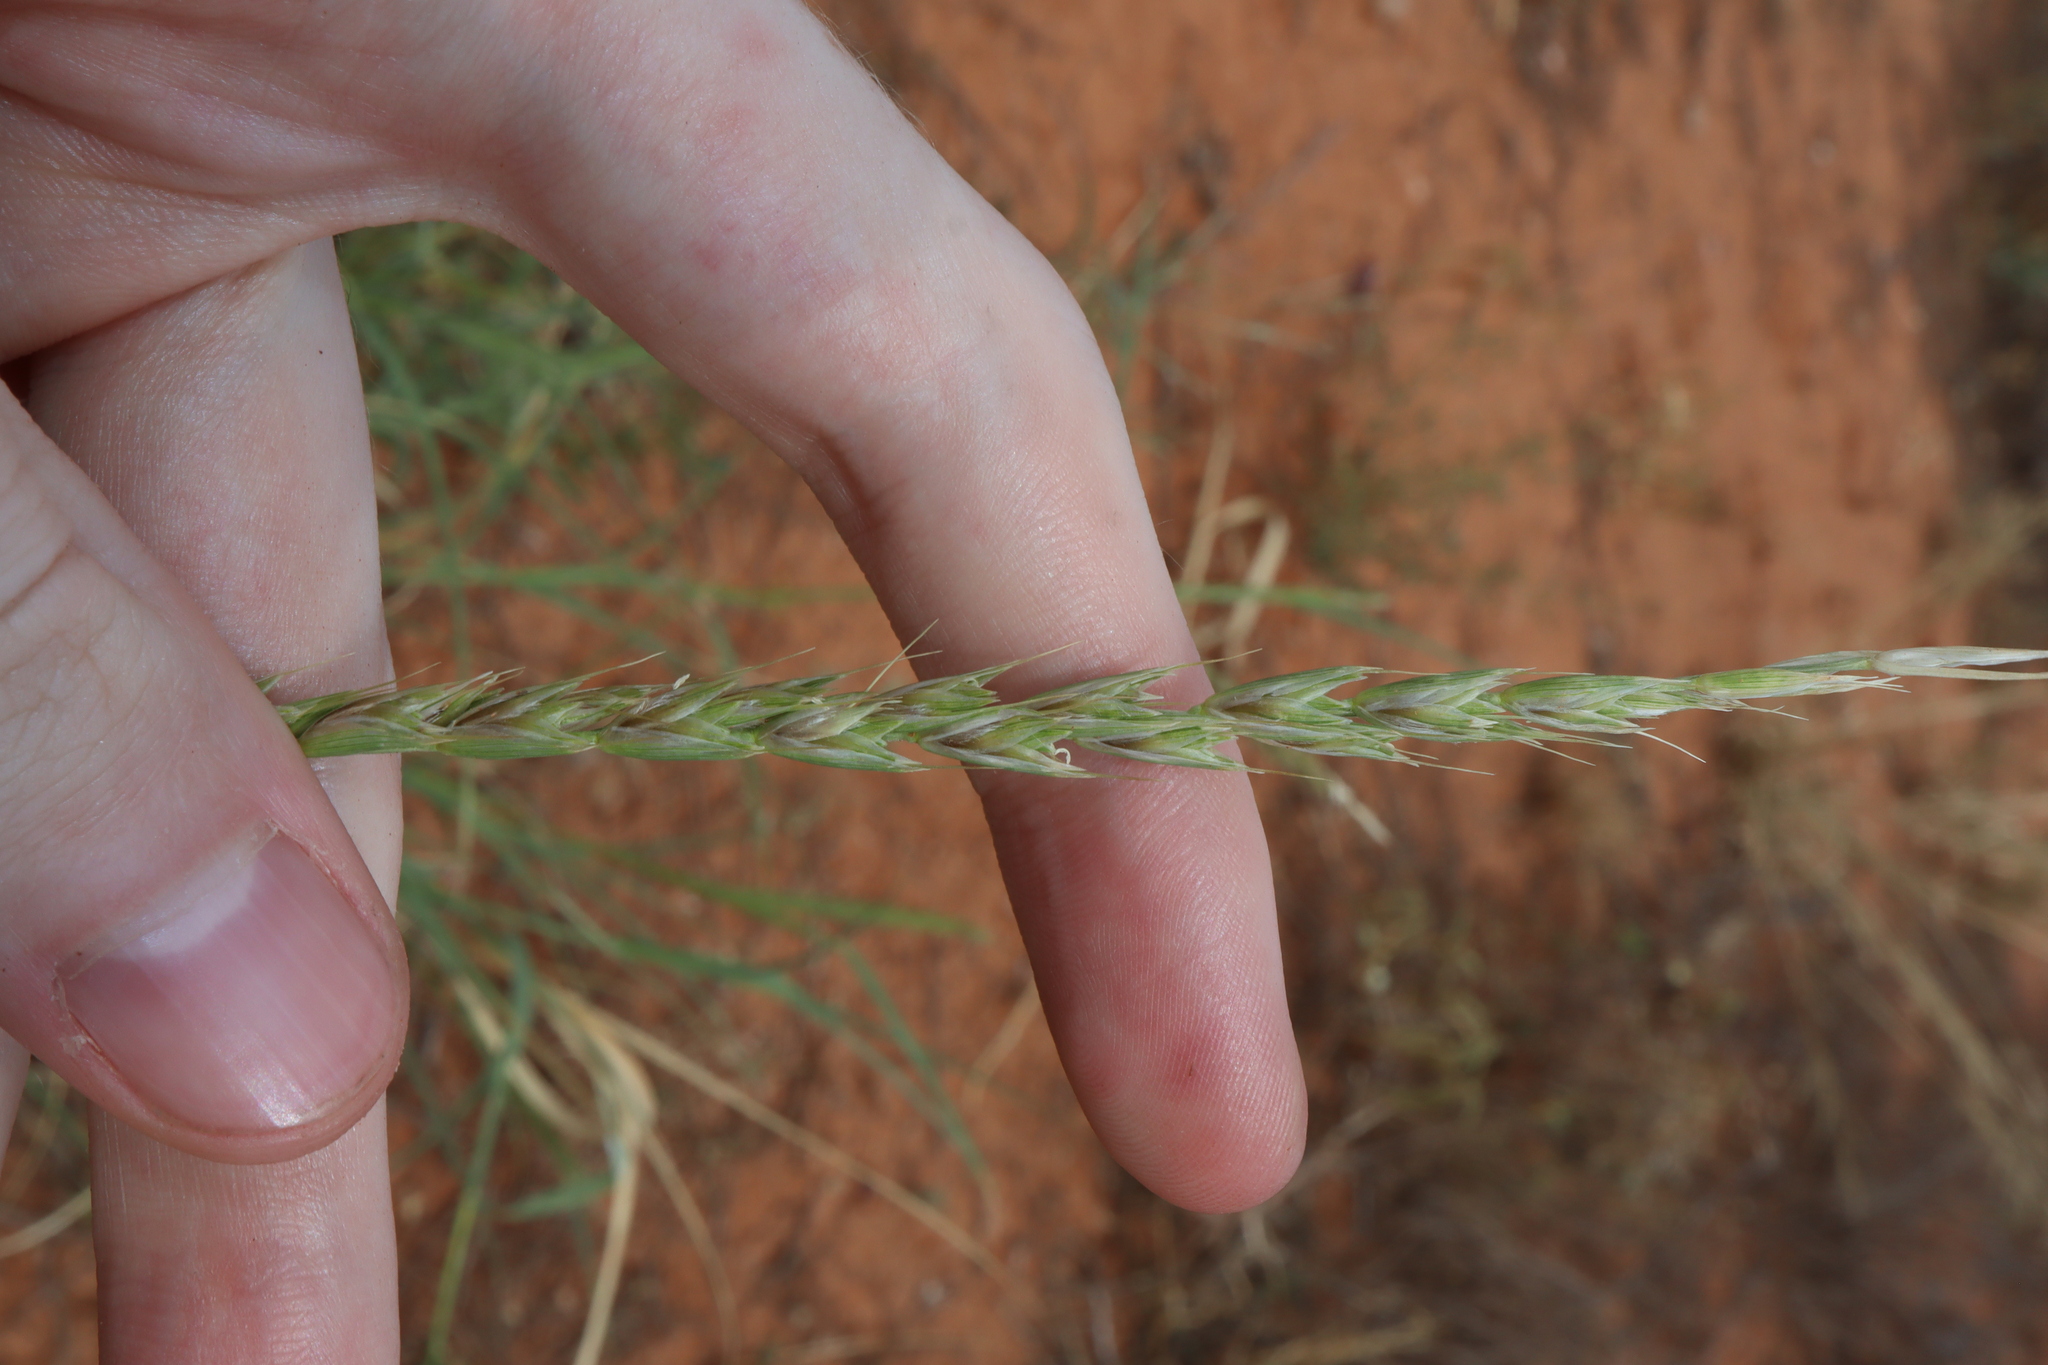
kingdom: Plantae
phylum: Tracheophyta
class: Liliopsida
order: Poales
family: Poaceae
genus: Astrebla
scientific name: Astrebla lappacea
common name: Curly mitchell grass
